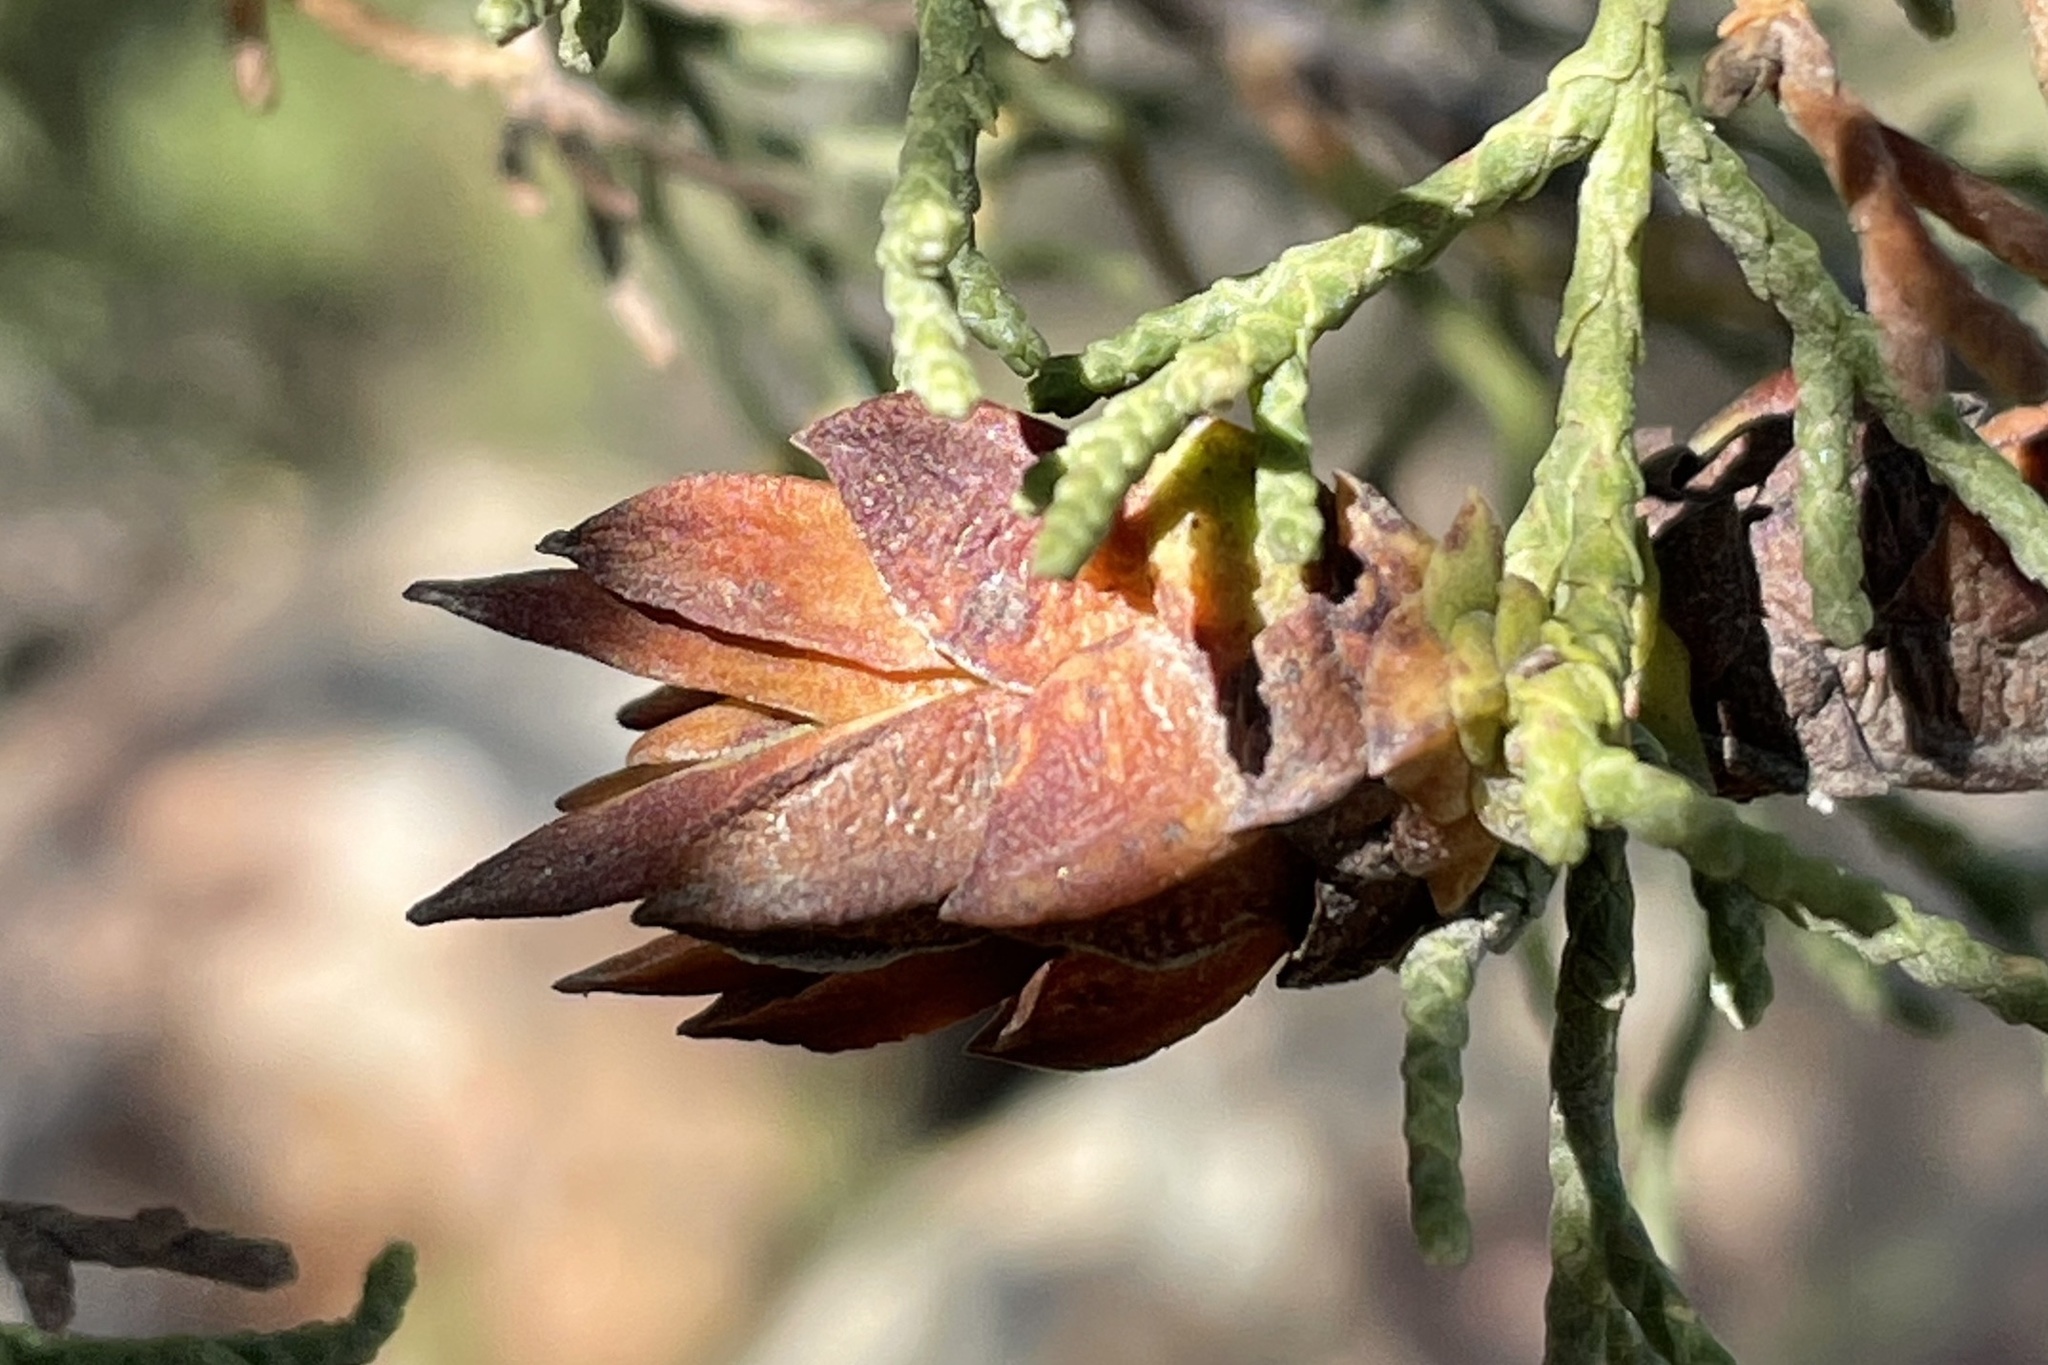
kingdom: Animalia
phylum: Arthropoda
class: Insecta
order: Diptera
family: Cecidomyiidae
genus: Oligotrophus
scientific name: Oligotrophus cupressi
